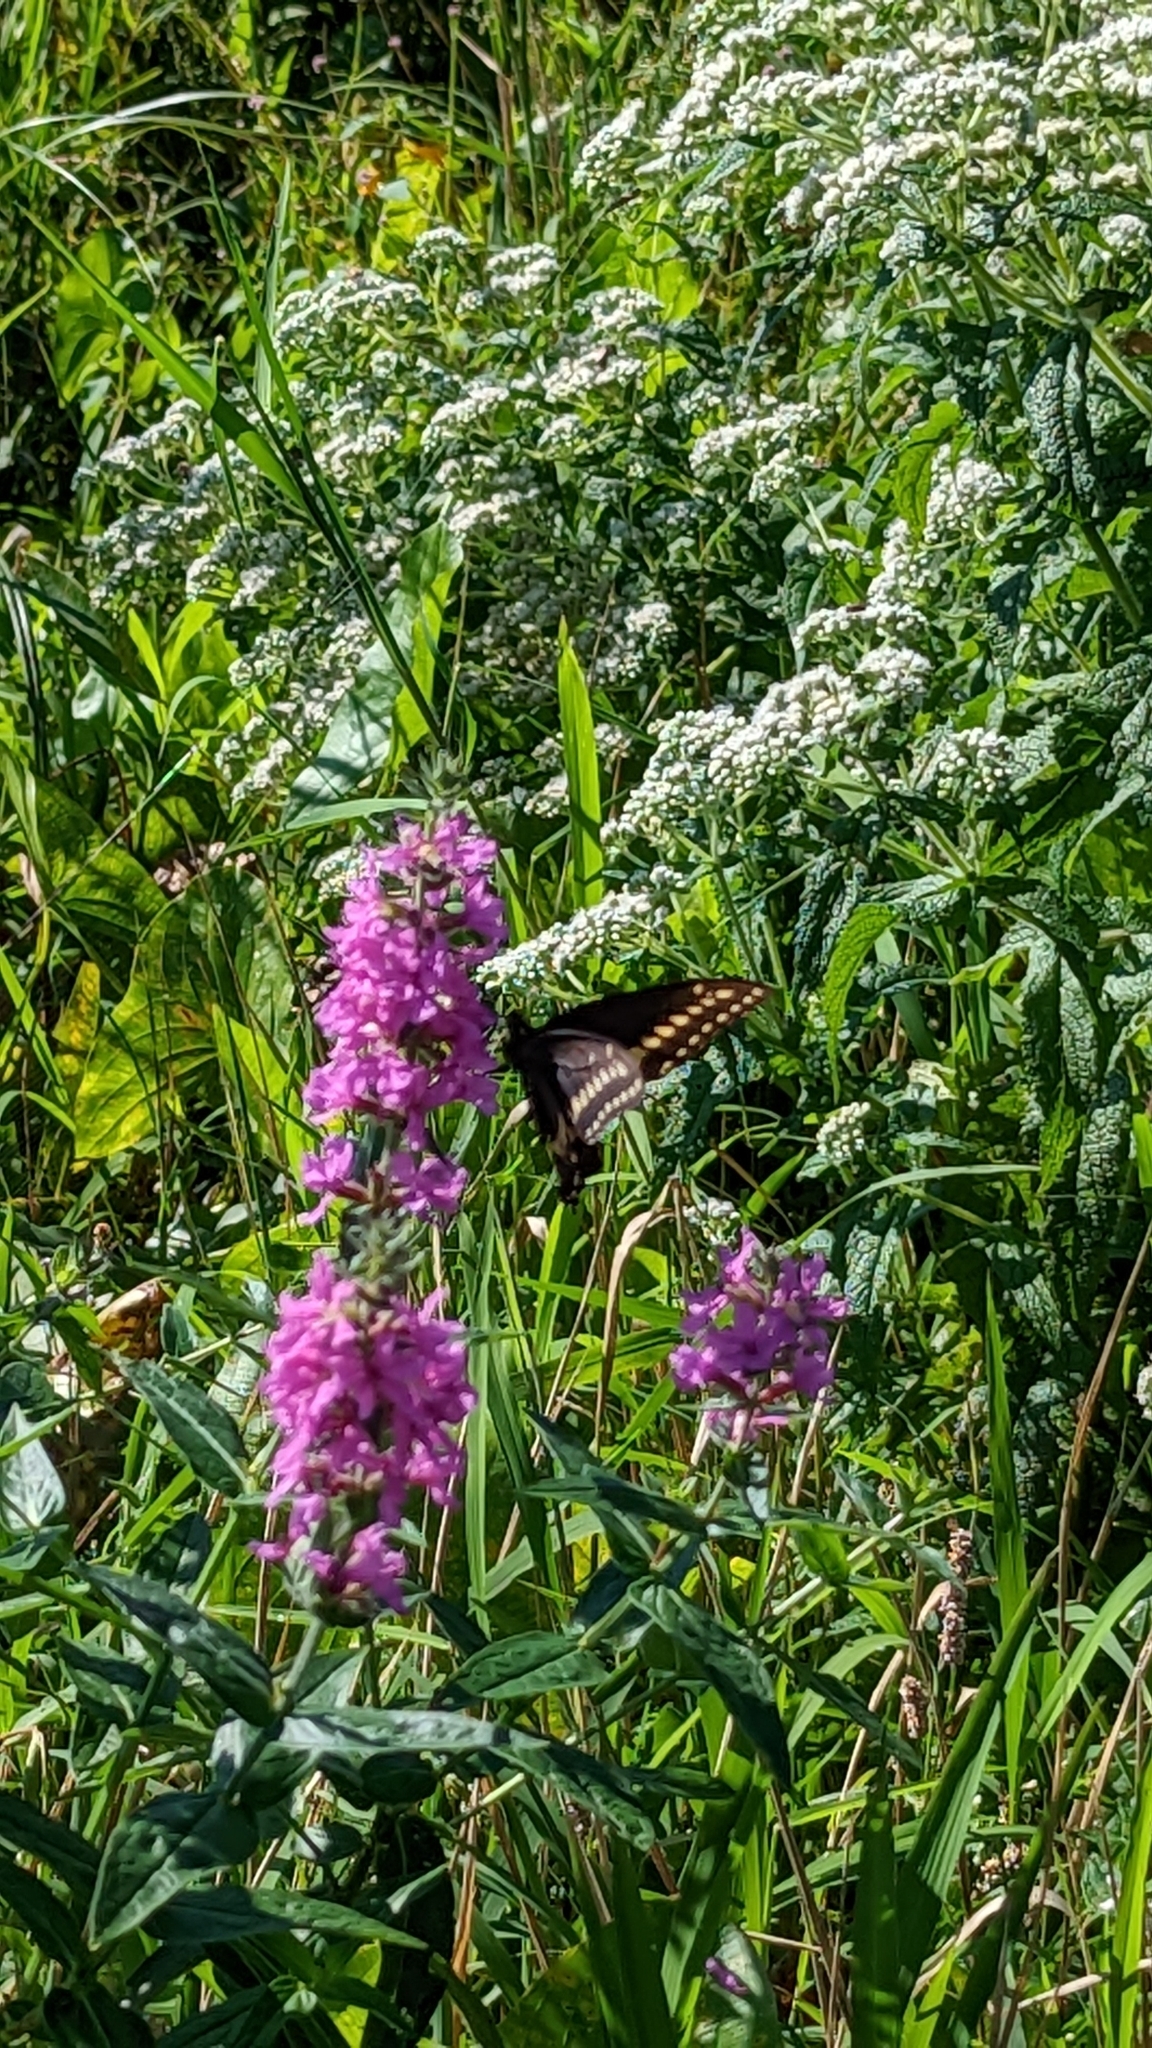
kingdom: Animalia
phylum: Arthropoda
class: Insecta
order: Lepidoptera
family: Papilionidae
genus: Papilio
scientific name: Papilio polyxenes
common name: Black swallowtail
